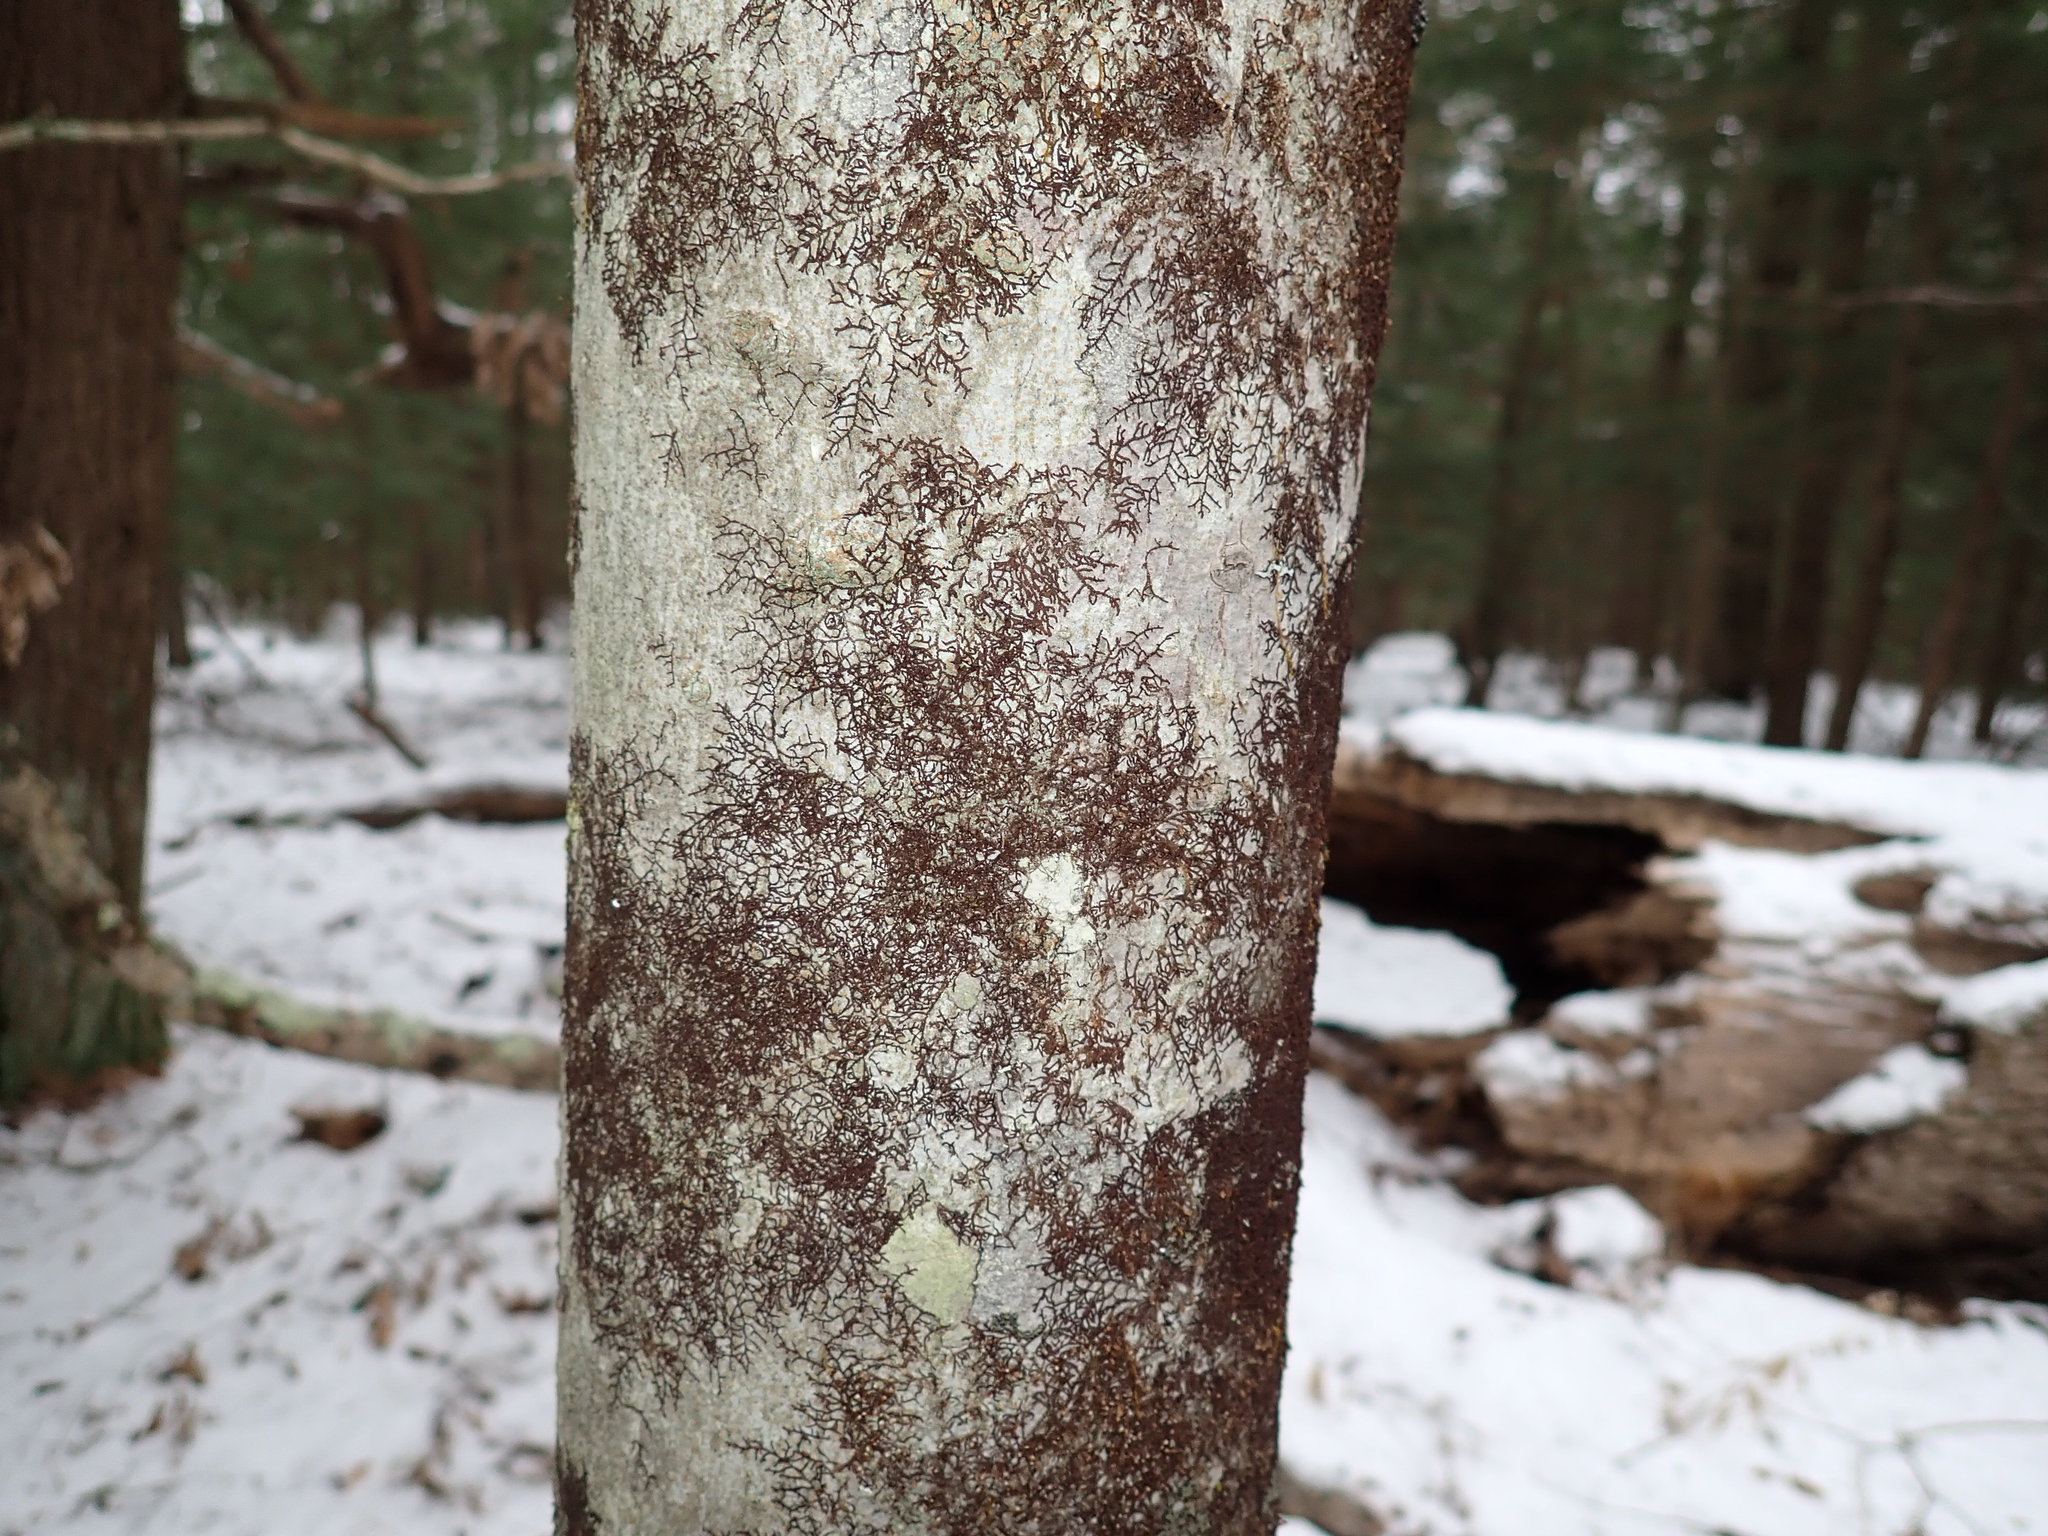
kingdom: Plantae
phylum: Marchantiophyta
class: Jungermanniopsida
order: Porellales
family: Frullaniaceae
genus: Frullania
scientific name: Frullania eboracensis
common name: New york scalewort
